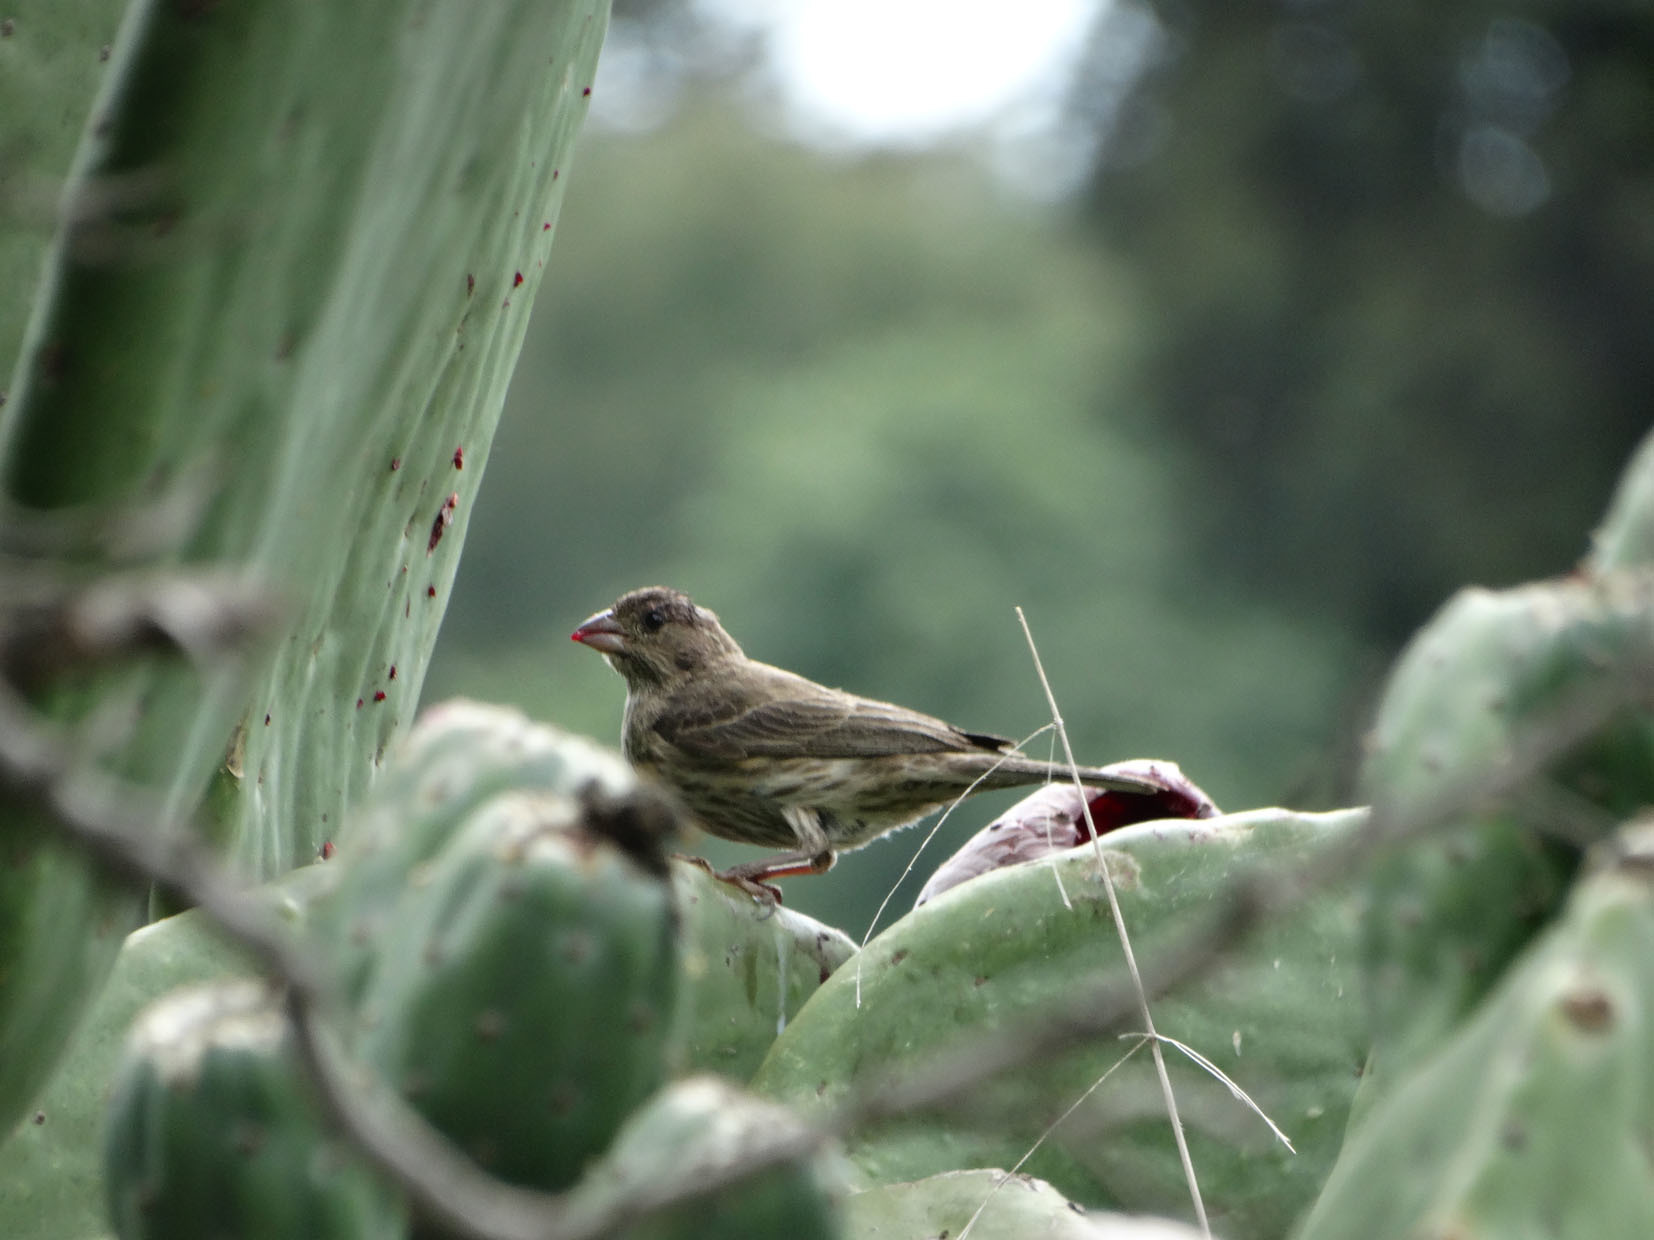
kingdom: Animalia
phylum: Chordata
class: Aves
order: Passeriformes
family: Fringillidae
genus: Haemorhous
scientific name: Haemorhous mexicanus
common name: House finch
